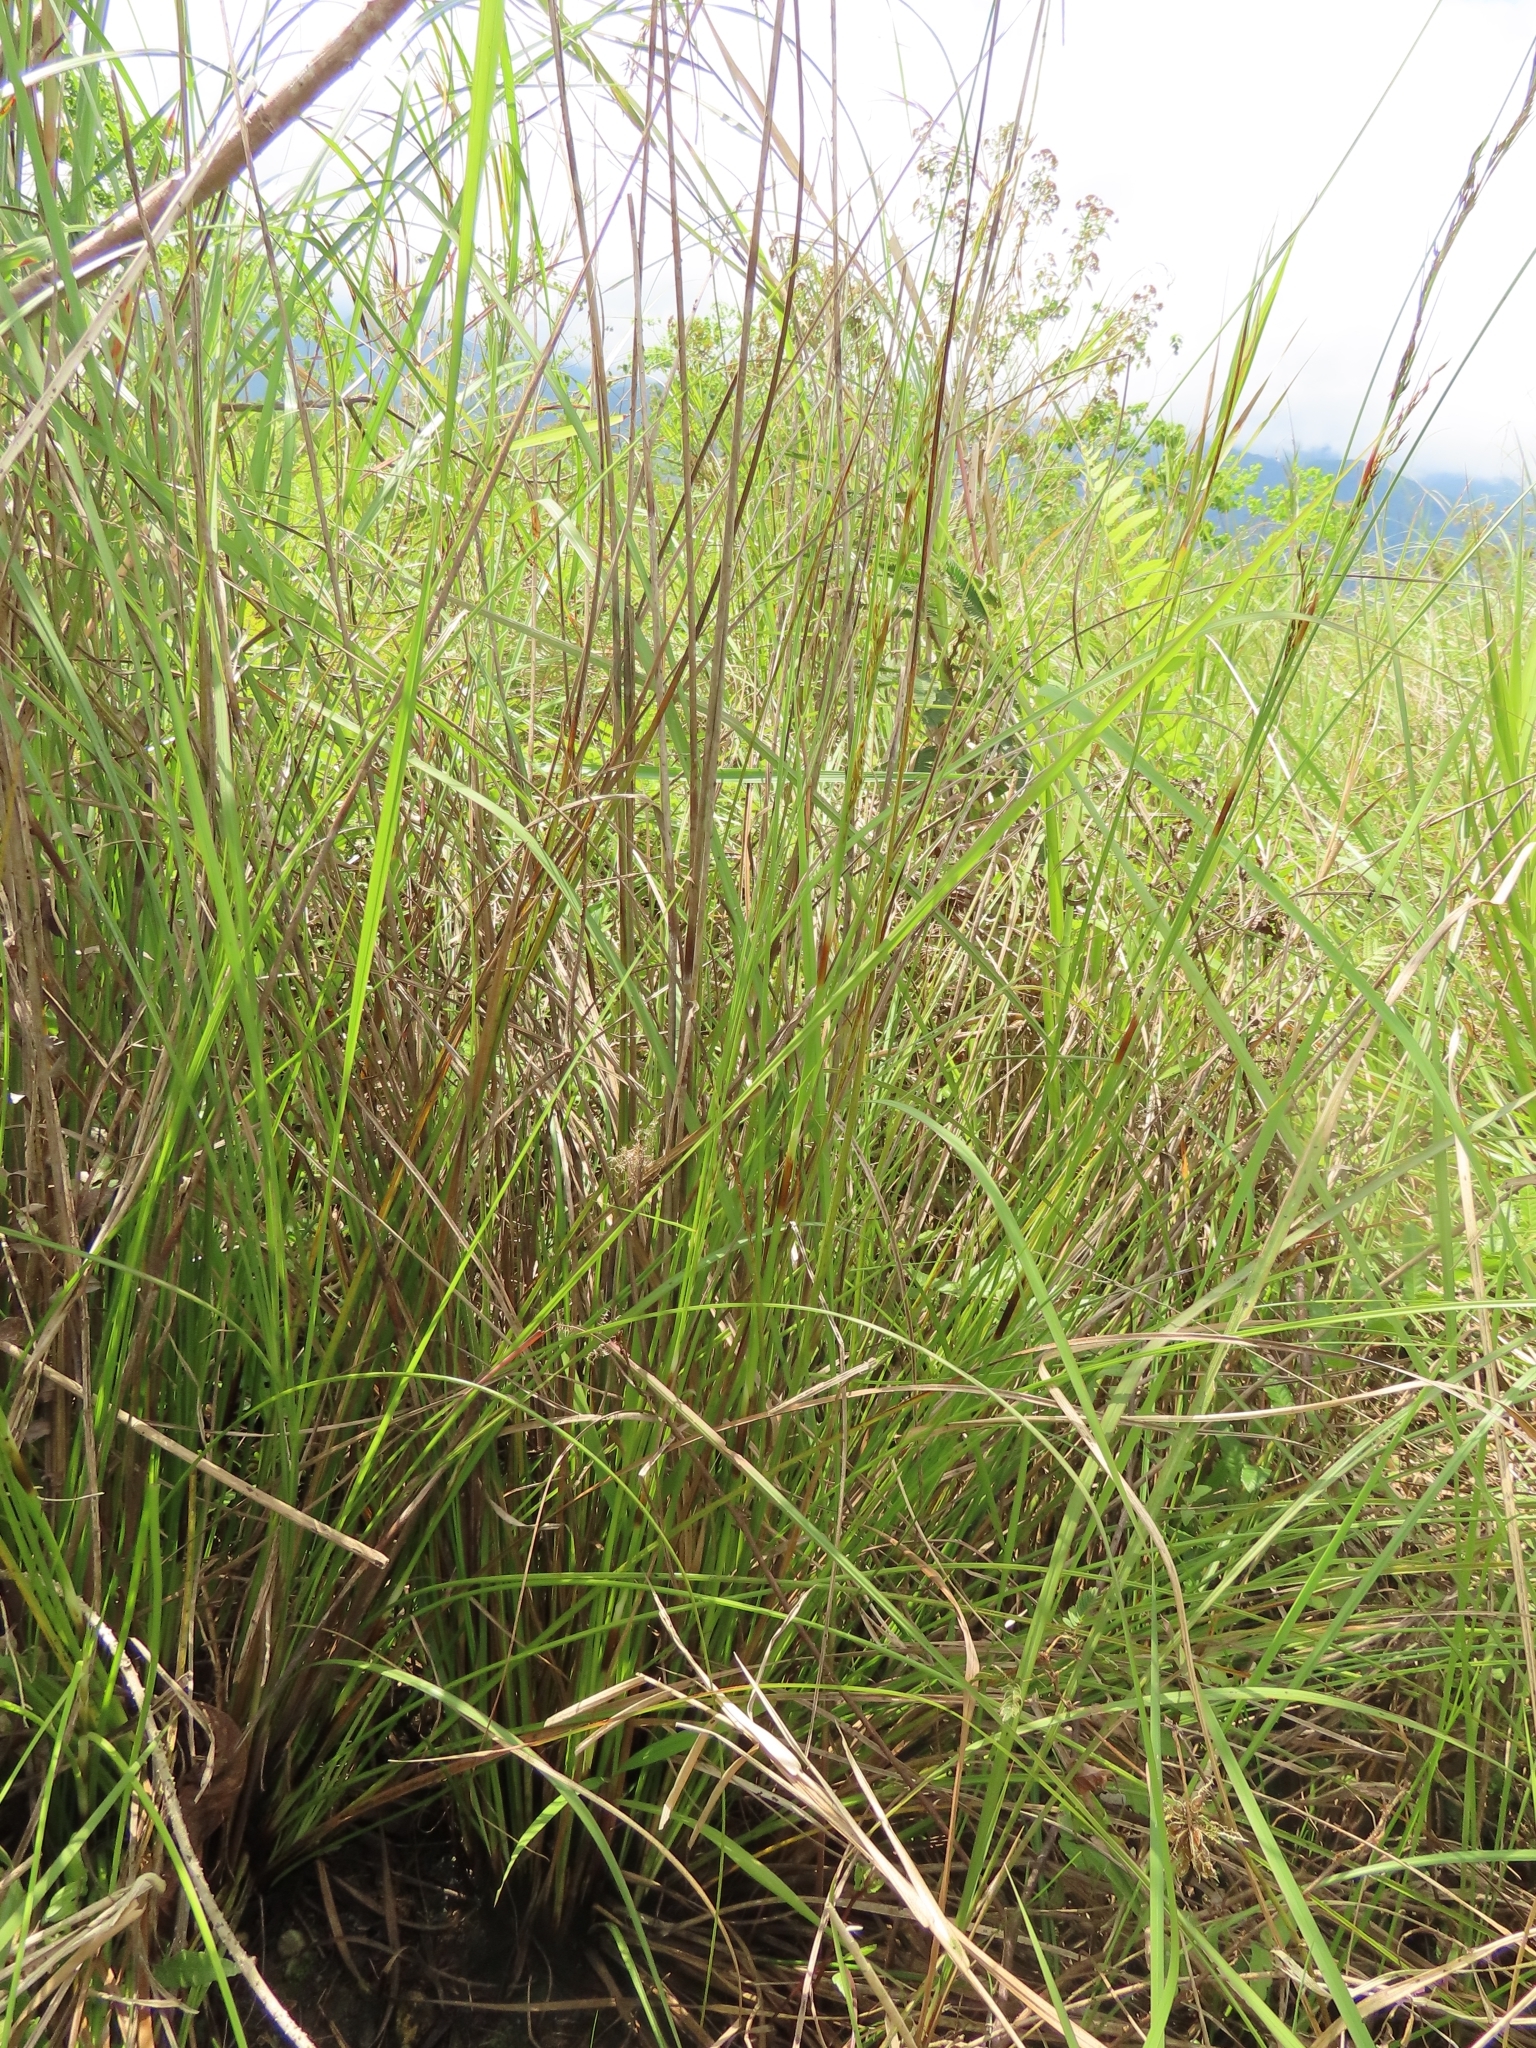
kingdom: Plantae
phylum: Tracheophyta
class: Liliopsida
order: Poales
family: Cyperaceae
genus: Schoenus
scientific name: Schoenus falcatus
